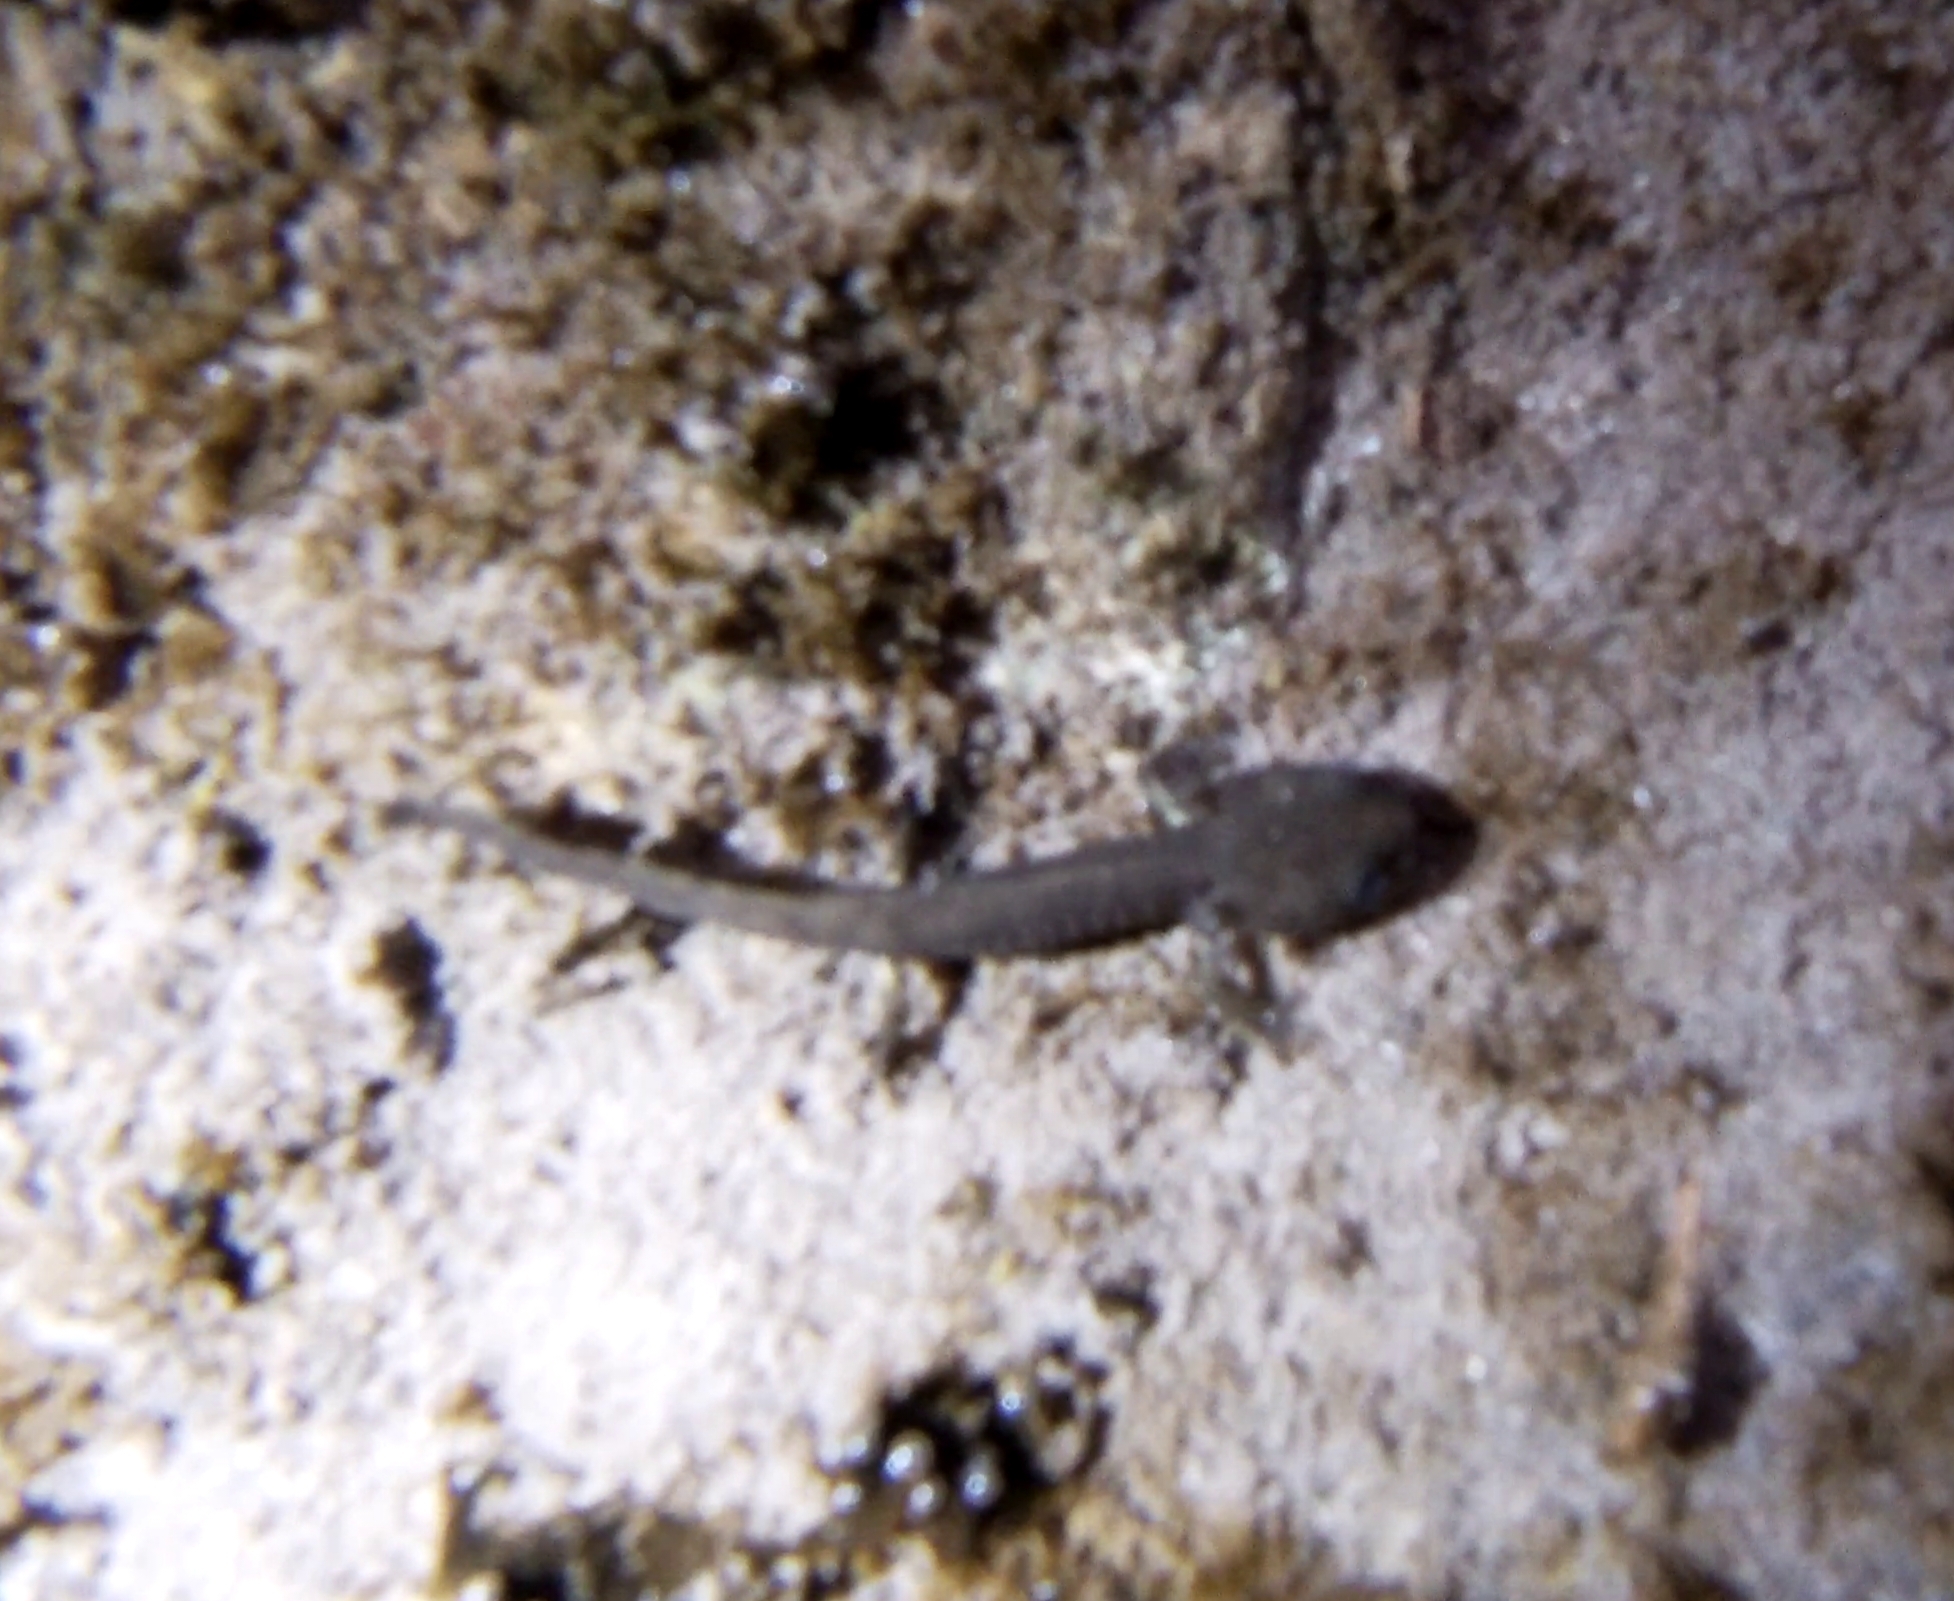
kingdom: Animalia
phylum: Chordata
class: Amphibia
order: Caudata
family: Salamandridae
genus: Salamandra
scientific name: Salamandra salamandra
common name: Fire salamander
